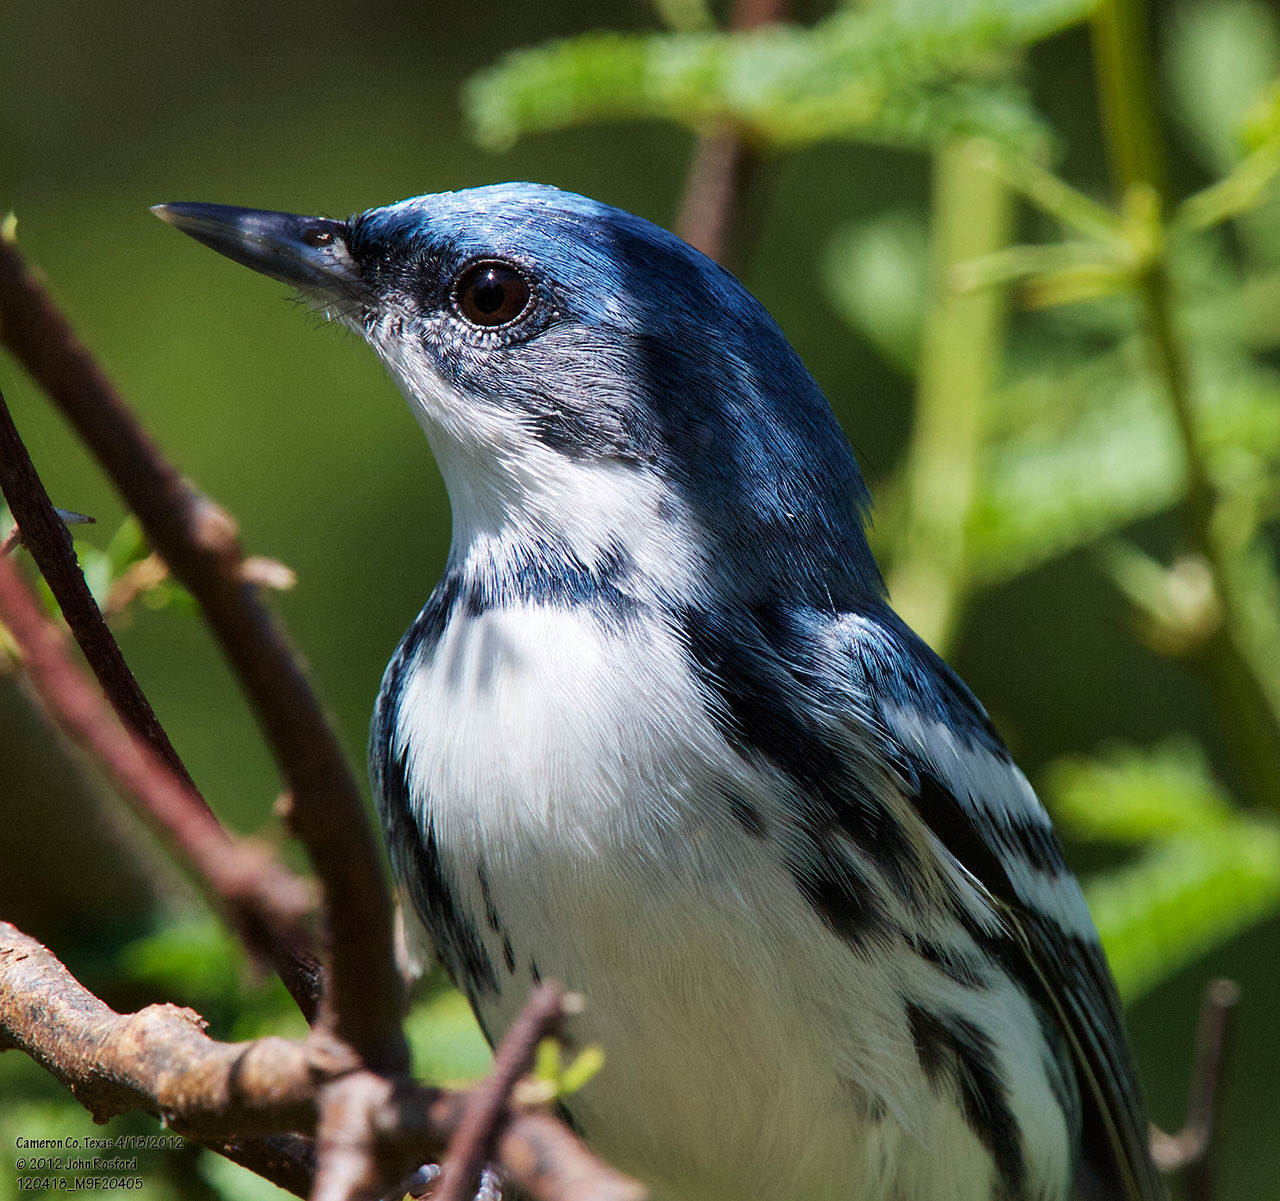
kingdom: Animalia
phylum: Chordata
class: Aves
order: Passeriformes
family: Parulidae
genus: Setophaga
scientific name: Setophaga cerulea
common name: Cerulean warbler
